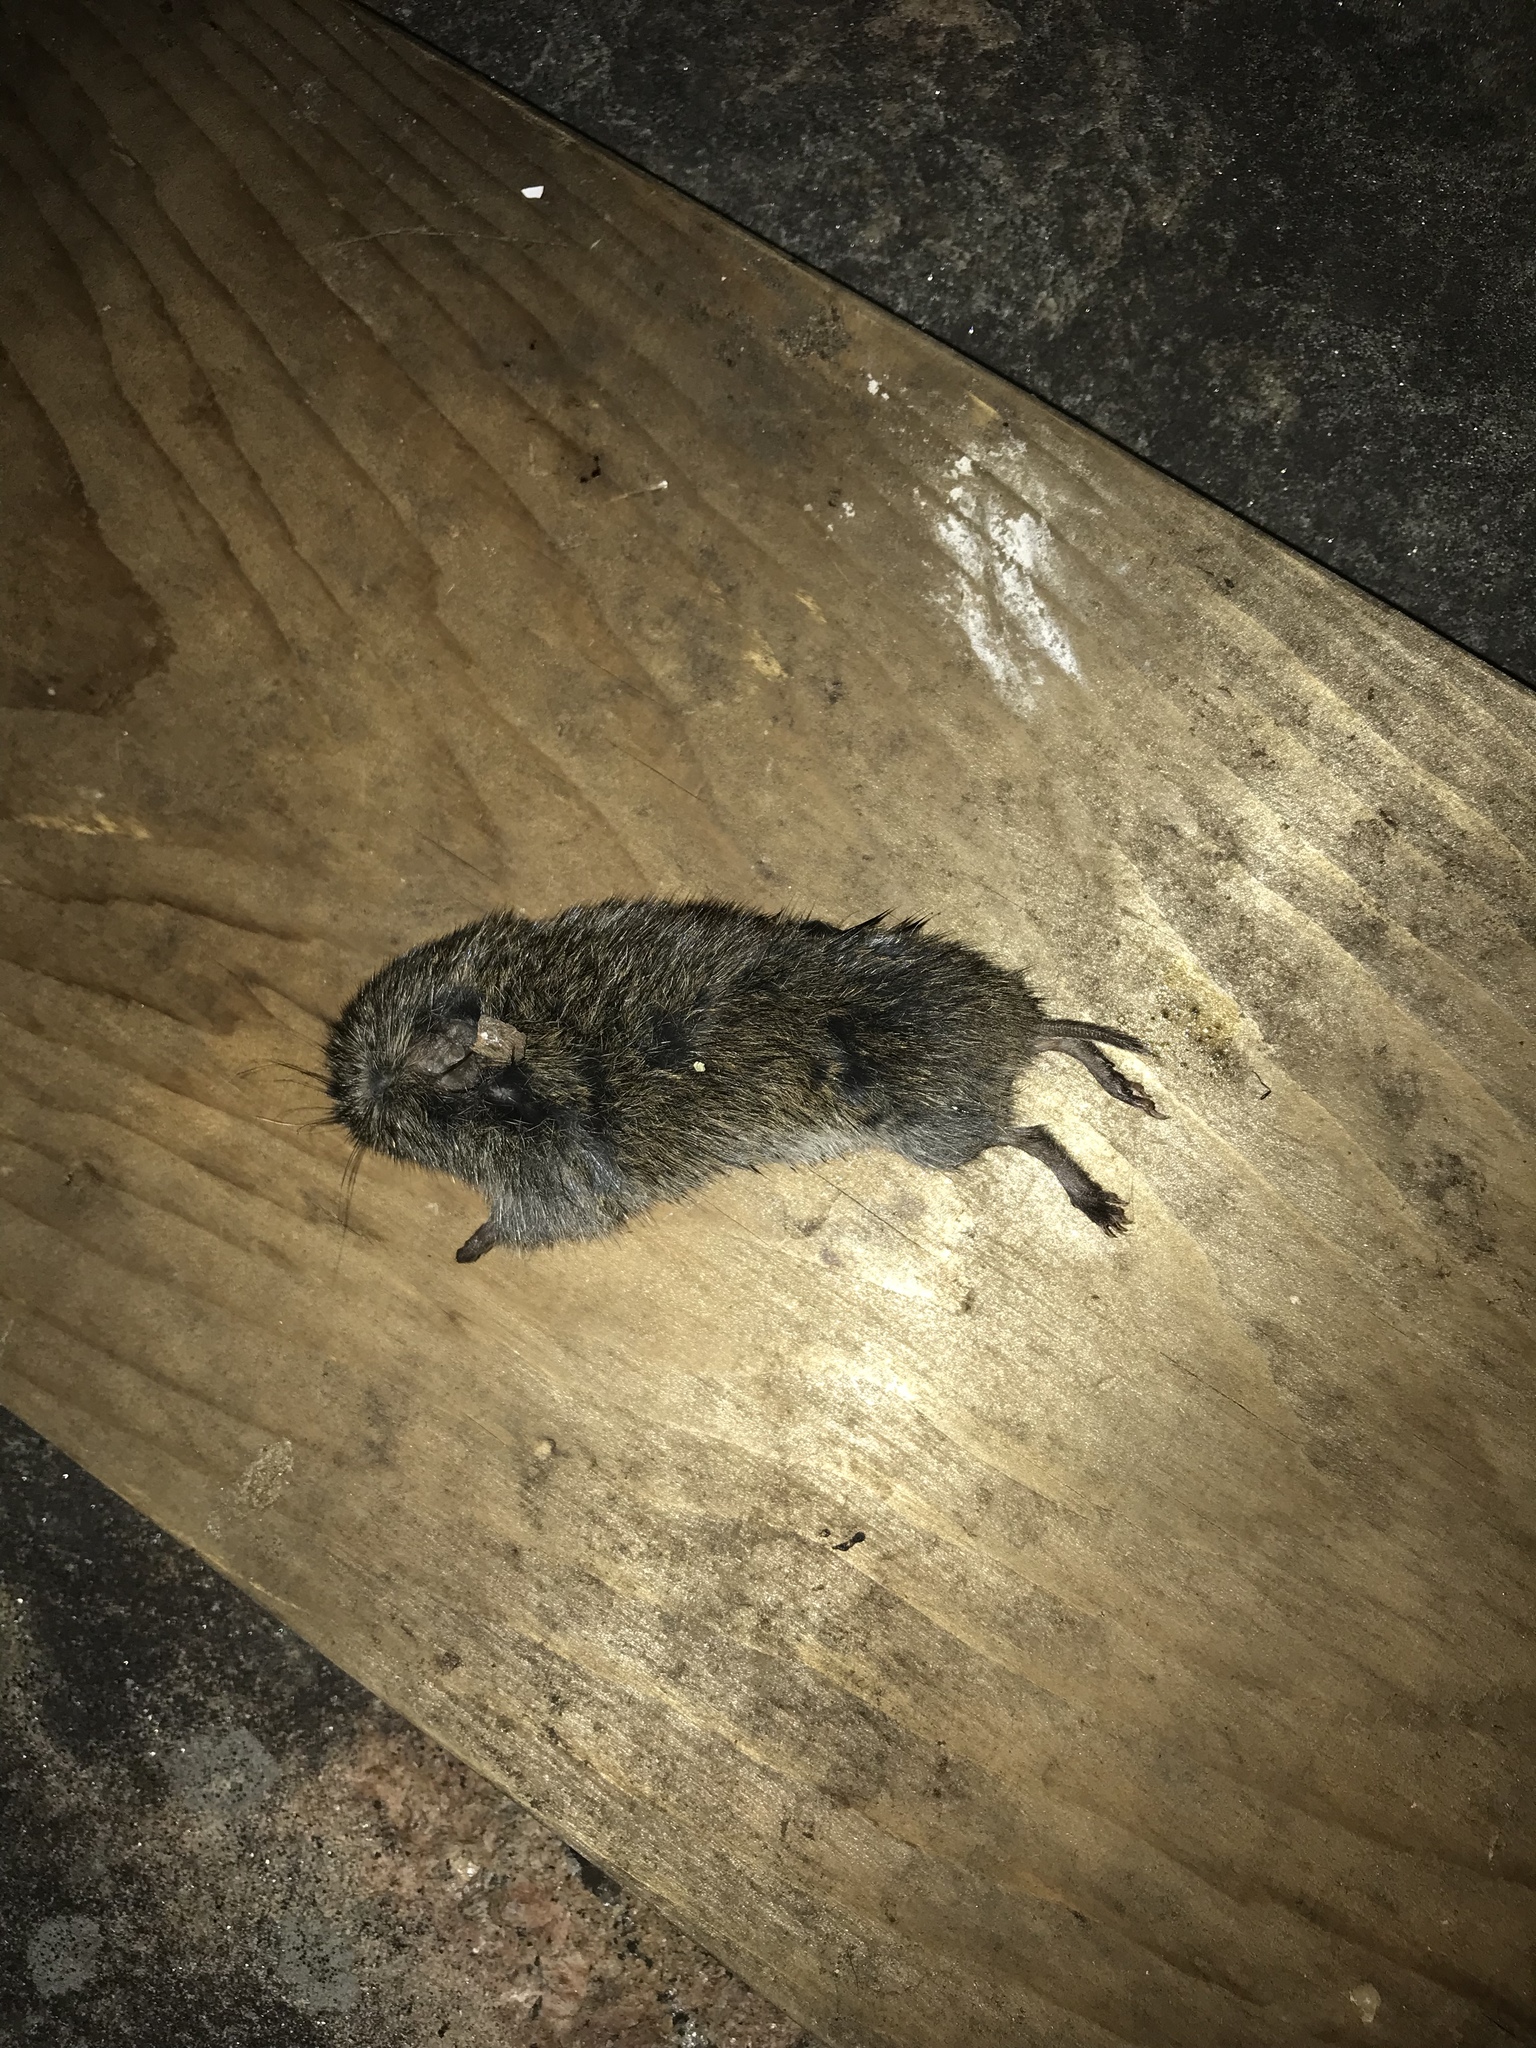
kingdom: Animalia
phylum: Chordata
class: Mammalia
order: Rodentia
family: Cricetidae
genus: Microtus
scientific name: Microtus pennsylvanicus
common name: Meadow vole
